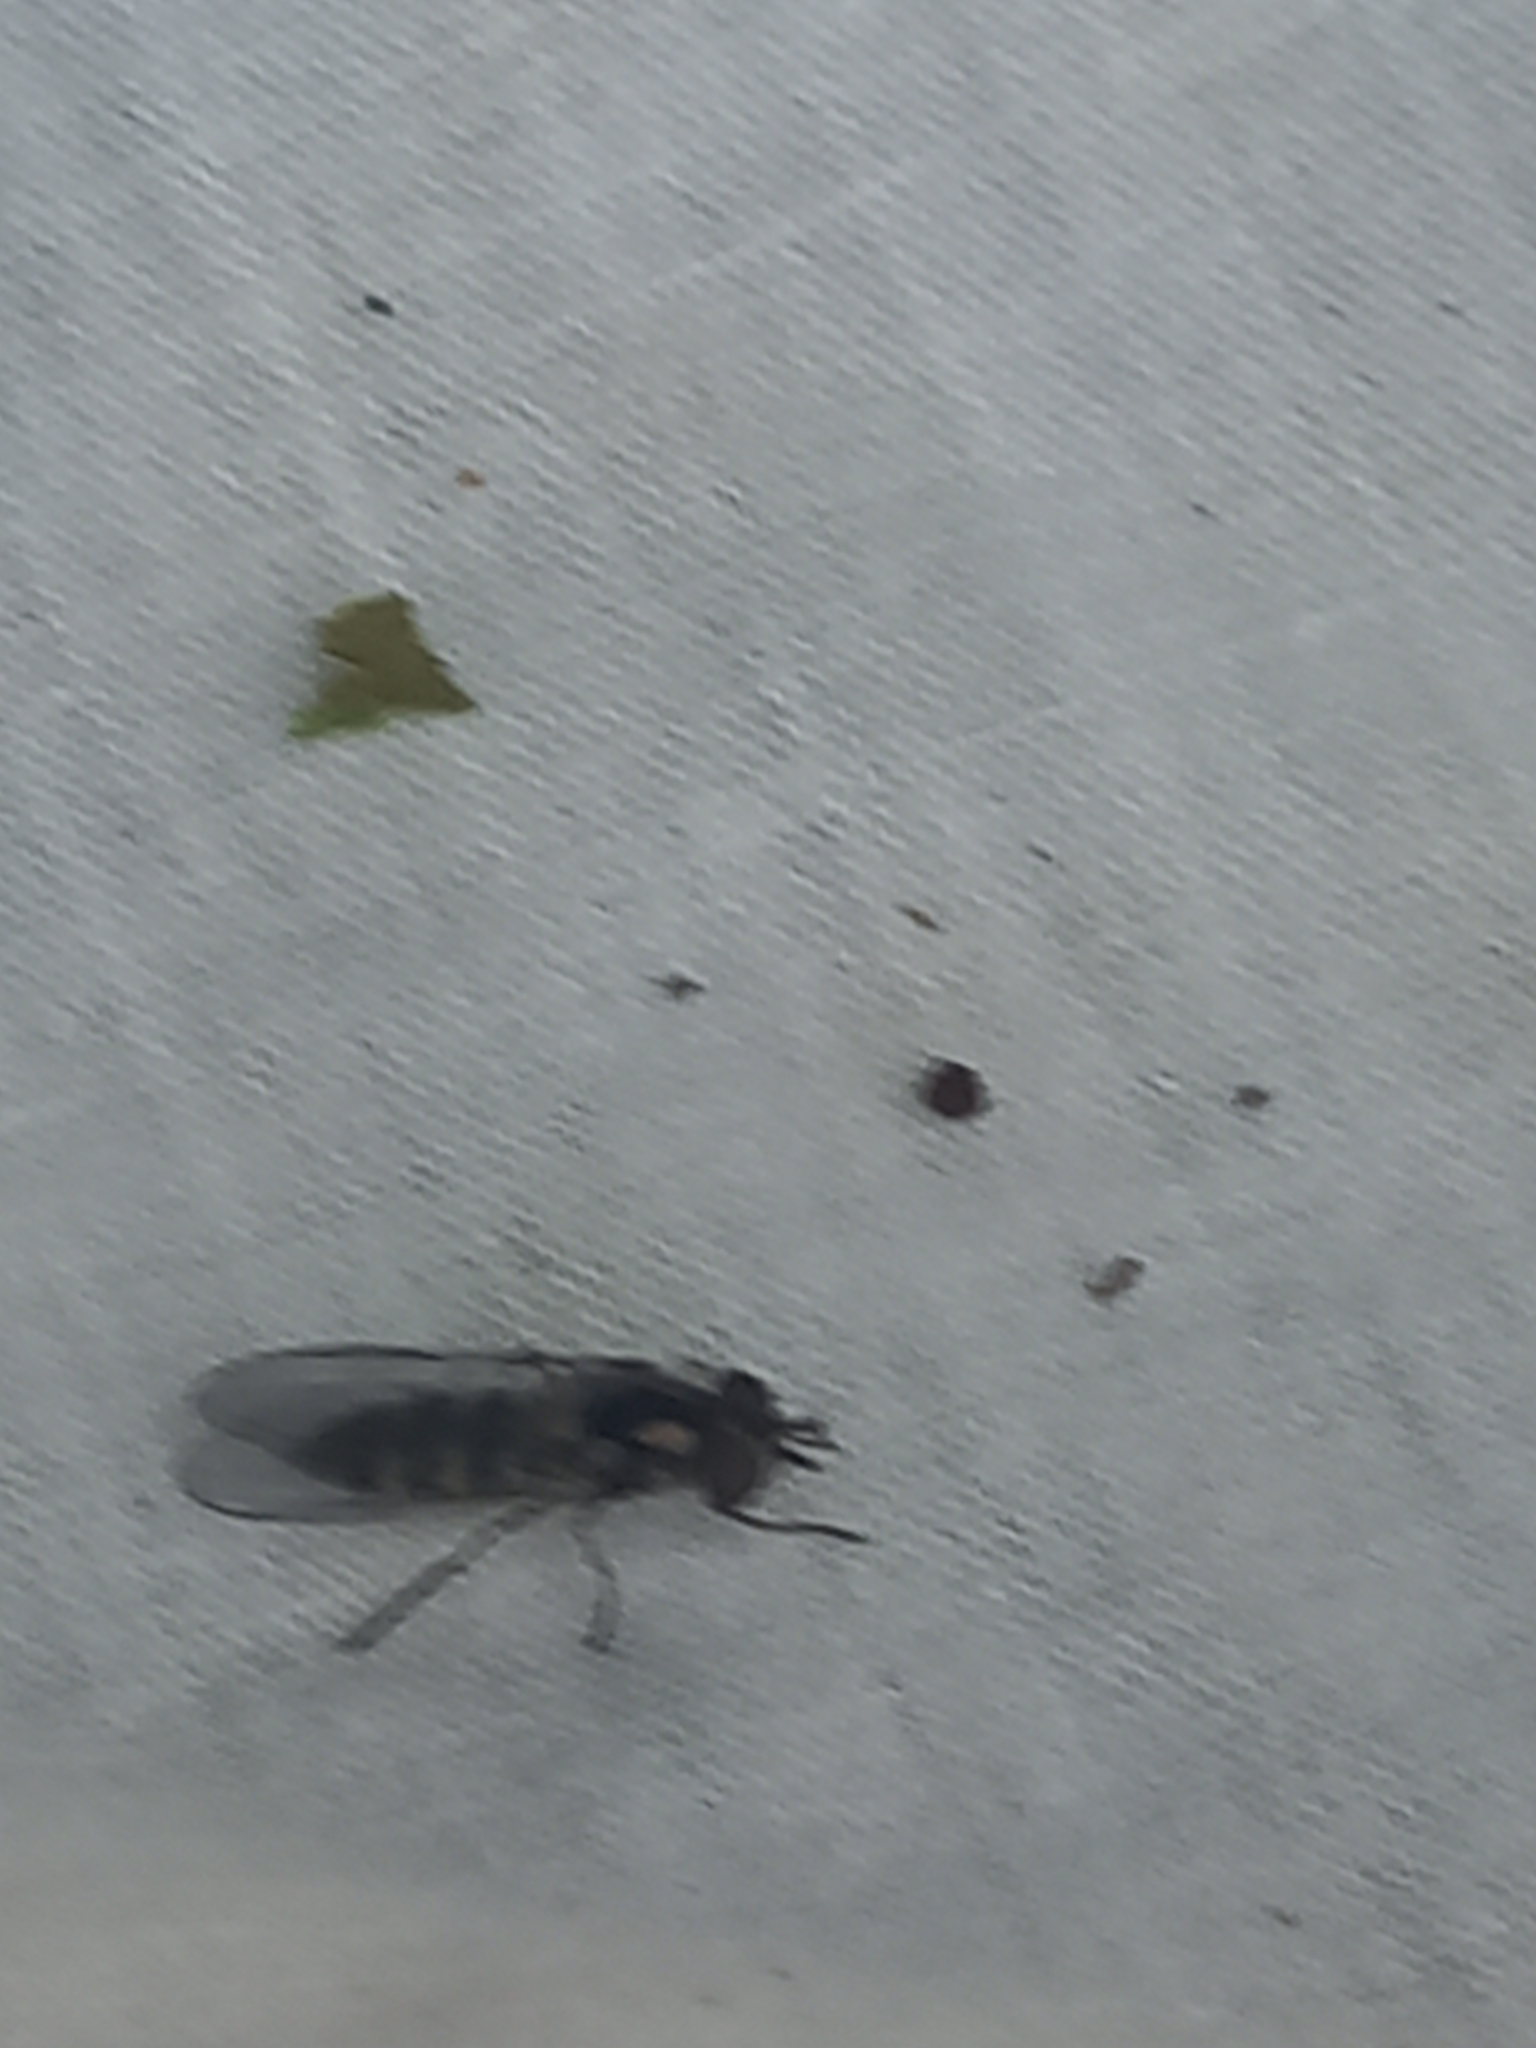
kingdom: Animalia
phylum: Arthropoda
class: Insecta
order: Diptera
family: Syrphidae
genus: Melangyna
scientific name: Melangyna novaezelandiae
